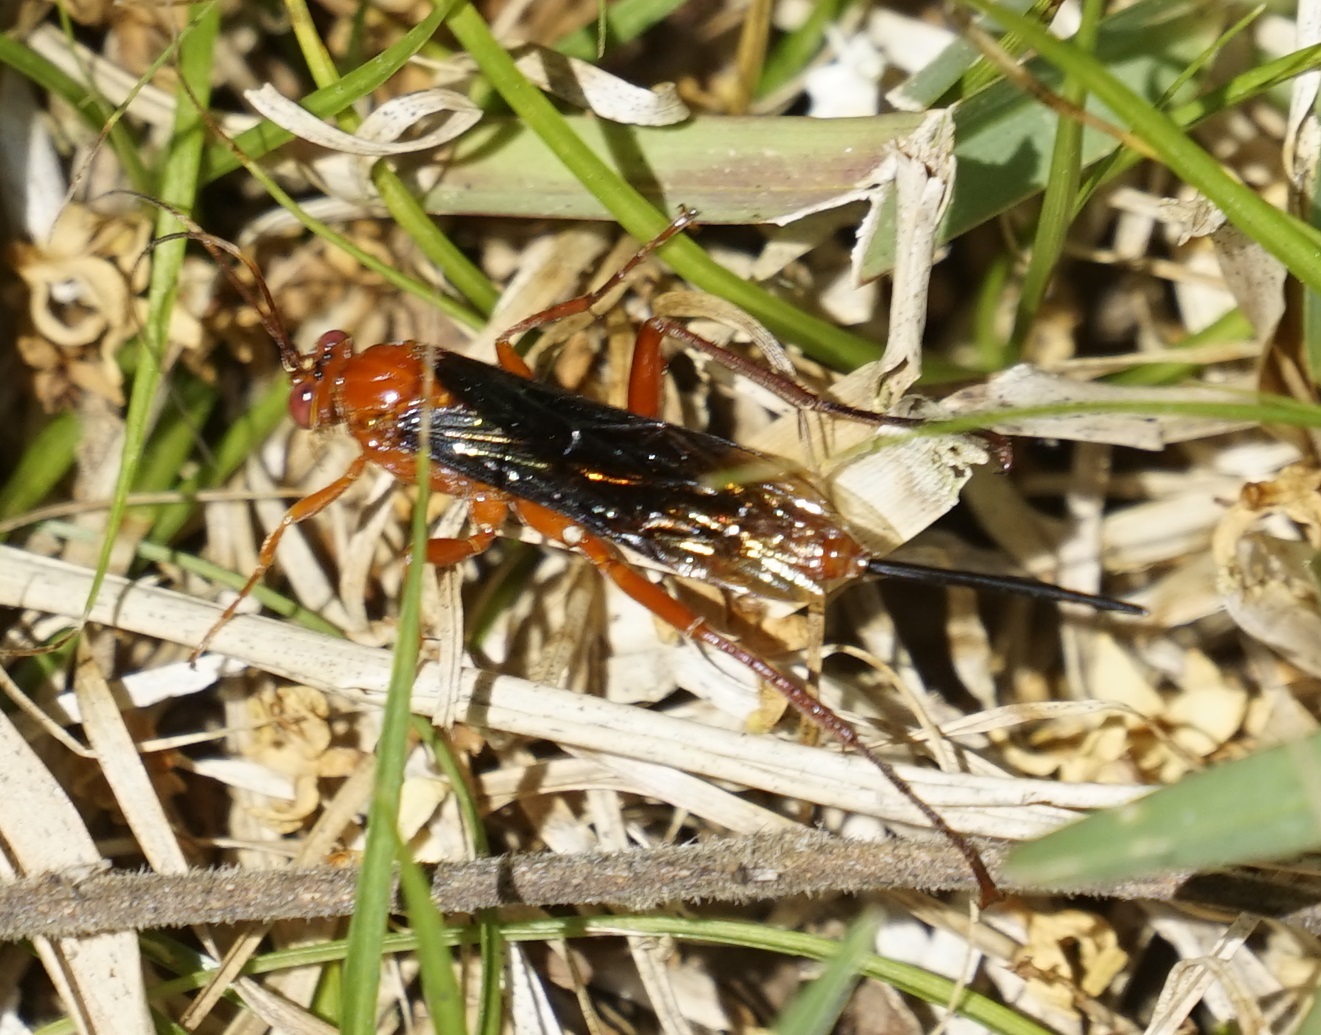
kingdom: Animalia
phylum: Arthropoda
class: Insecta
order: Hymenoptera
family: Ichneumonidae
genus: Lissopimpla
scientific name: Lissopimpla excelsa
